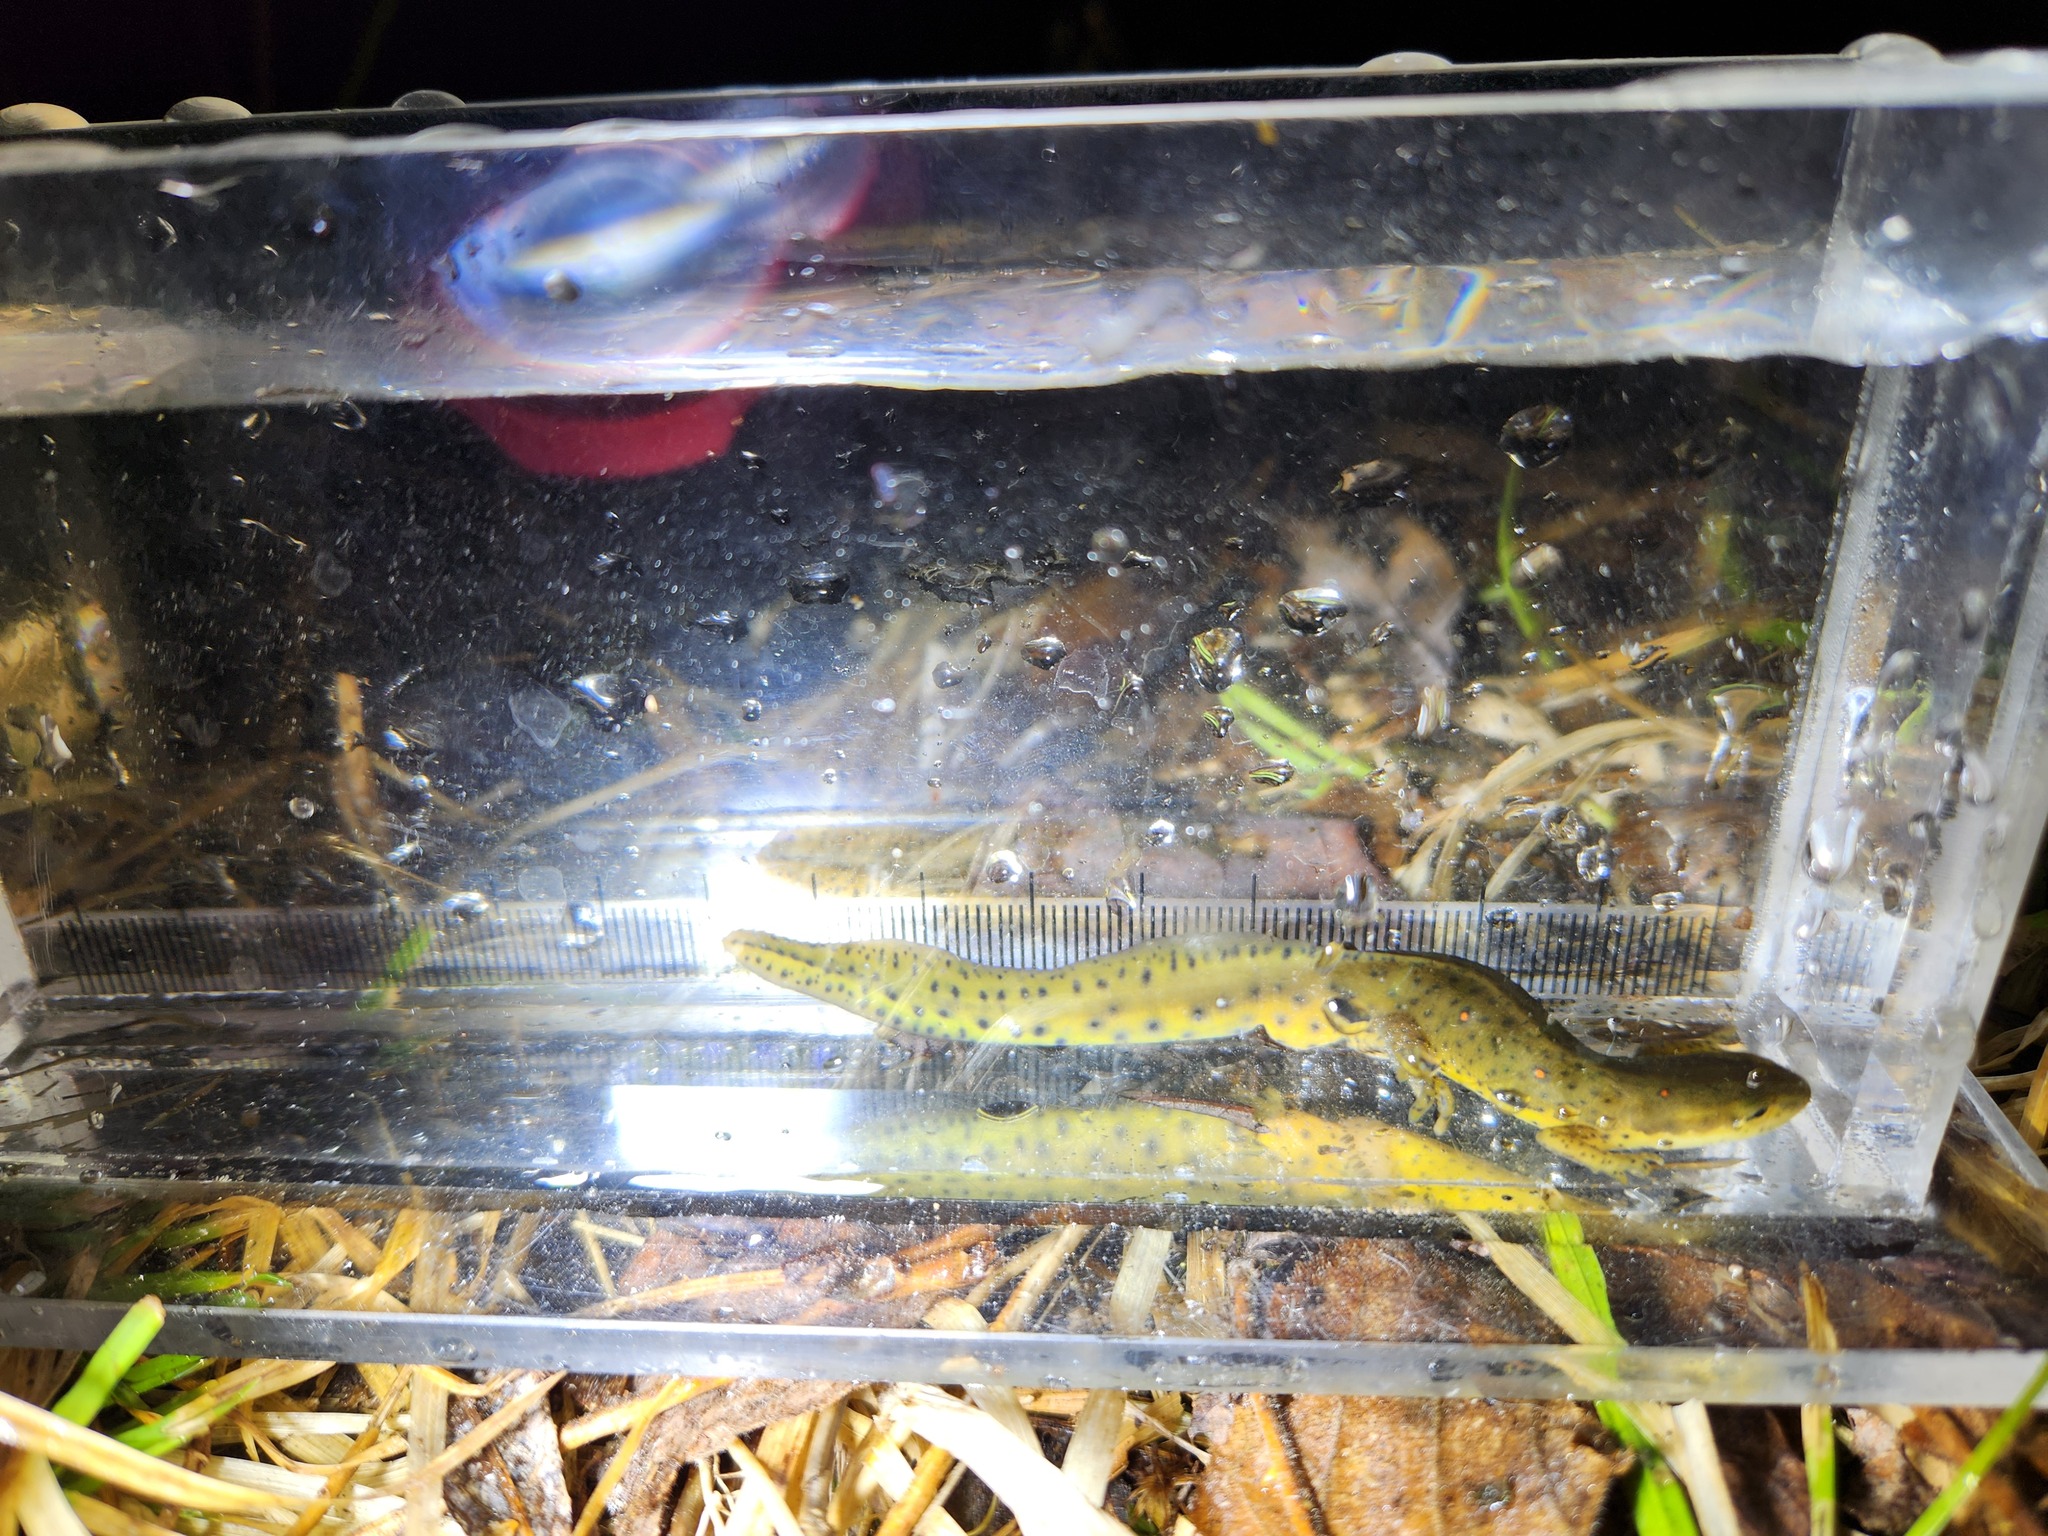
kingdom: Animalia
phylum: Chordata
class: Amphibia
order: Caudata
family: Salamandridae
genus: Notophthalmus
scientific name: Notophthalmus viridescens
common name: Eastern newt
